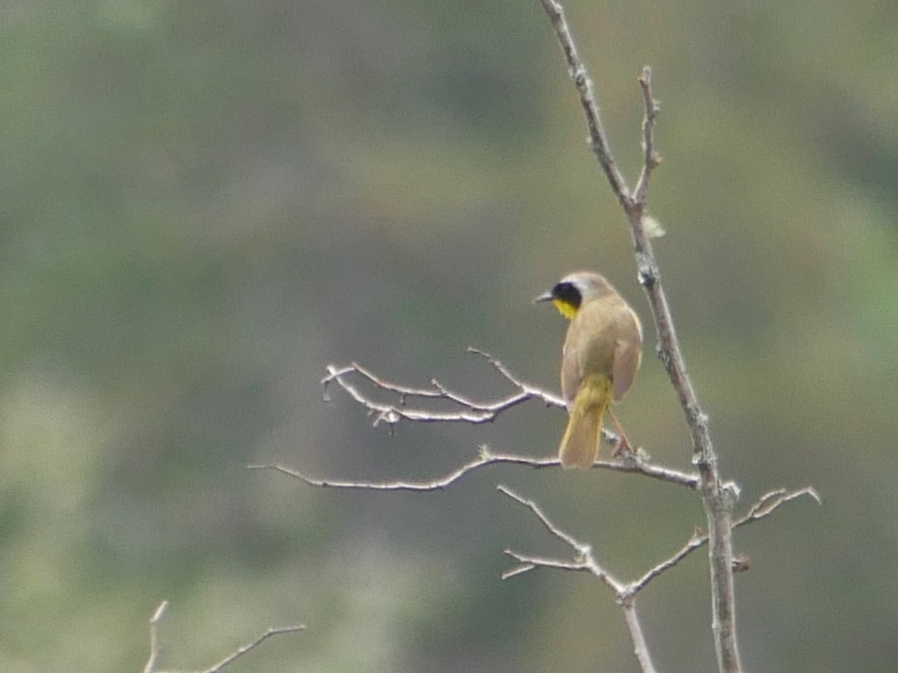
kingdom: Animalia
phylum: Chordata
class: Aves
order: Passeriformes
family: Parulidae
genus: Geothlypis
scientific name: Geothlypis trichas
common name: Common yellowthroat
